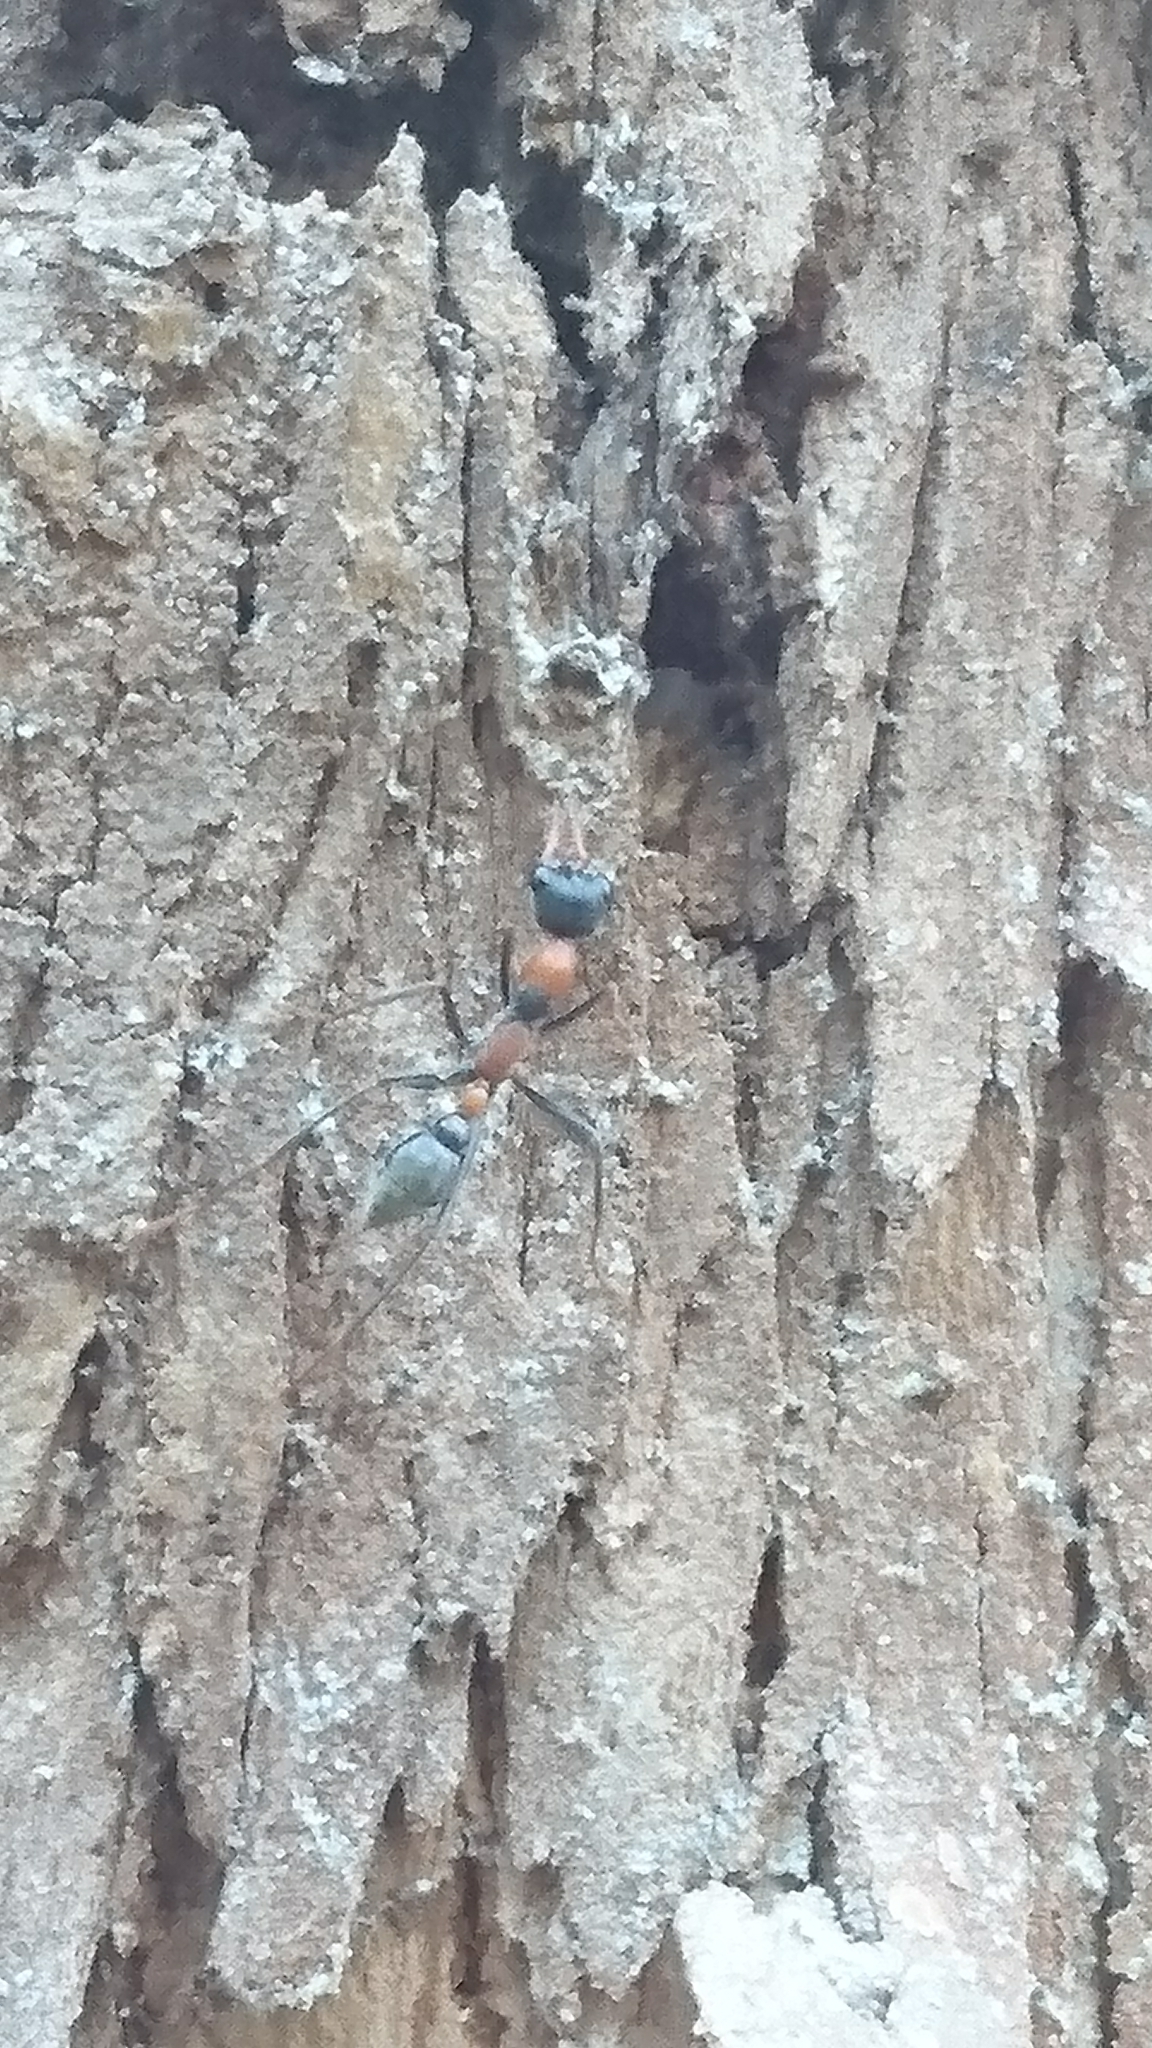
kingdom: Animalia
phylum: Arthropoda
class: Insecta
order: Hymenoptera
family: Formicidae
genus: Myrmecia
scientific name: Myrmecia nigrocincta
